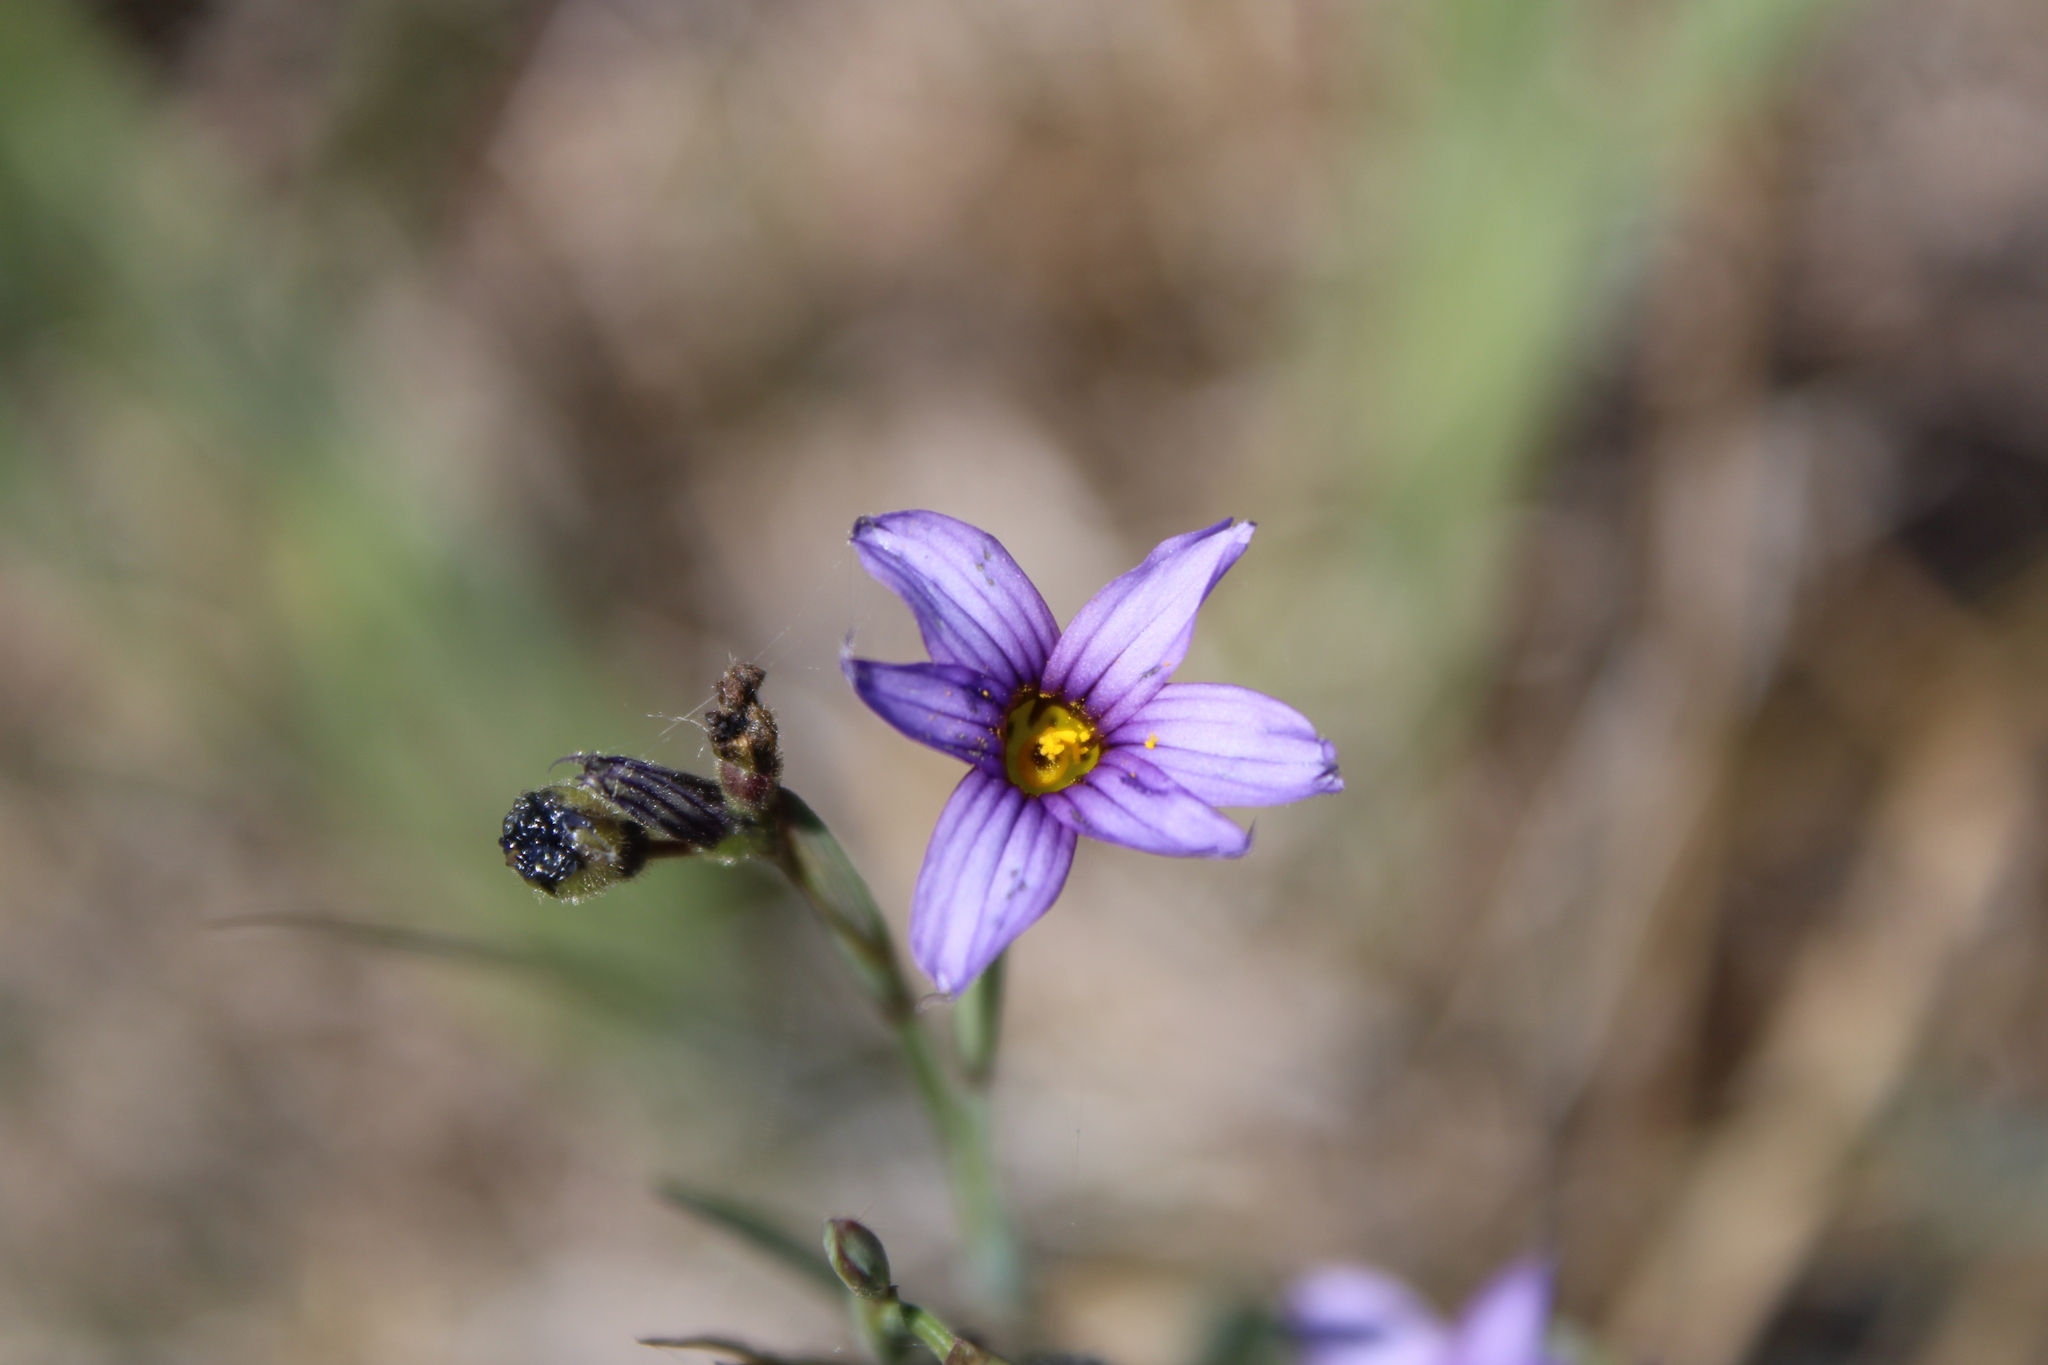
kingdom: Plantae
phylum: Tracheophyta
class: Liliopsida
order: Asparagales
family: Iridaceae
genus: Sisyrinchium
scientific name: Sisyrinchium platense
